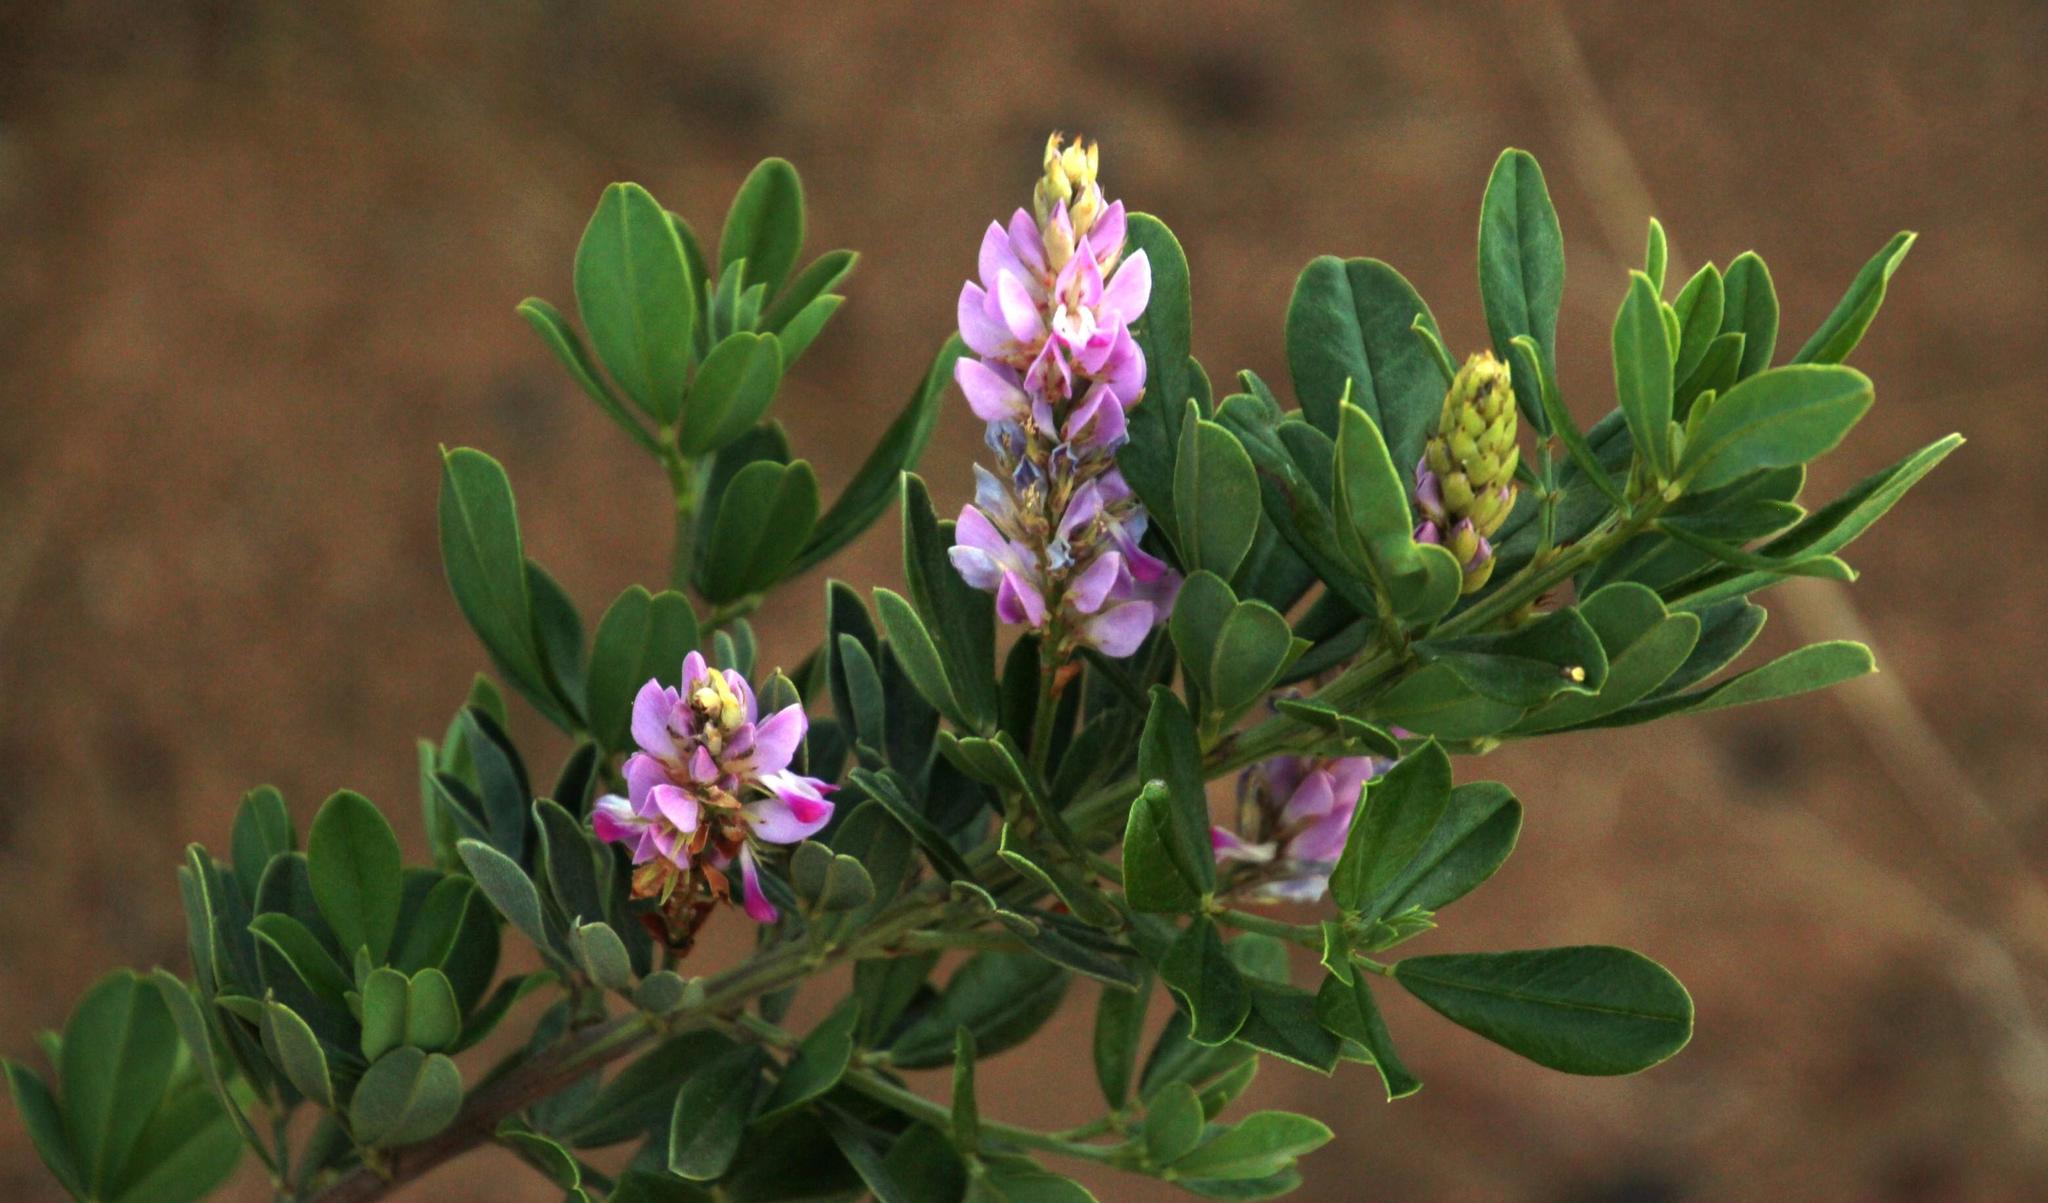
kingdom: Plantae
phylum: Tracheophyta
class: Magnoliopsida
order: Fabales
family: Fabaceae
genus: Indigofera
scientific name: Indigofera cytisoides
